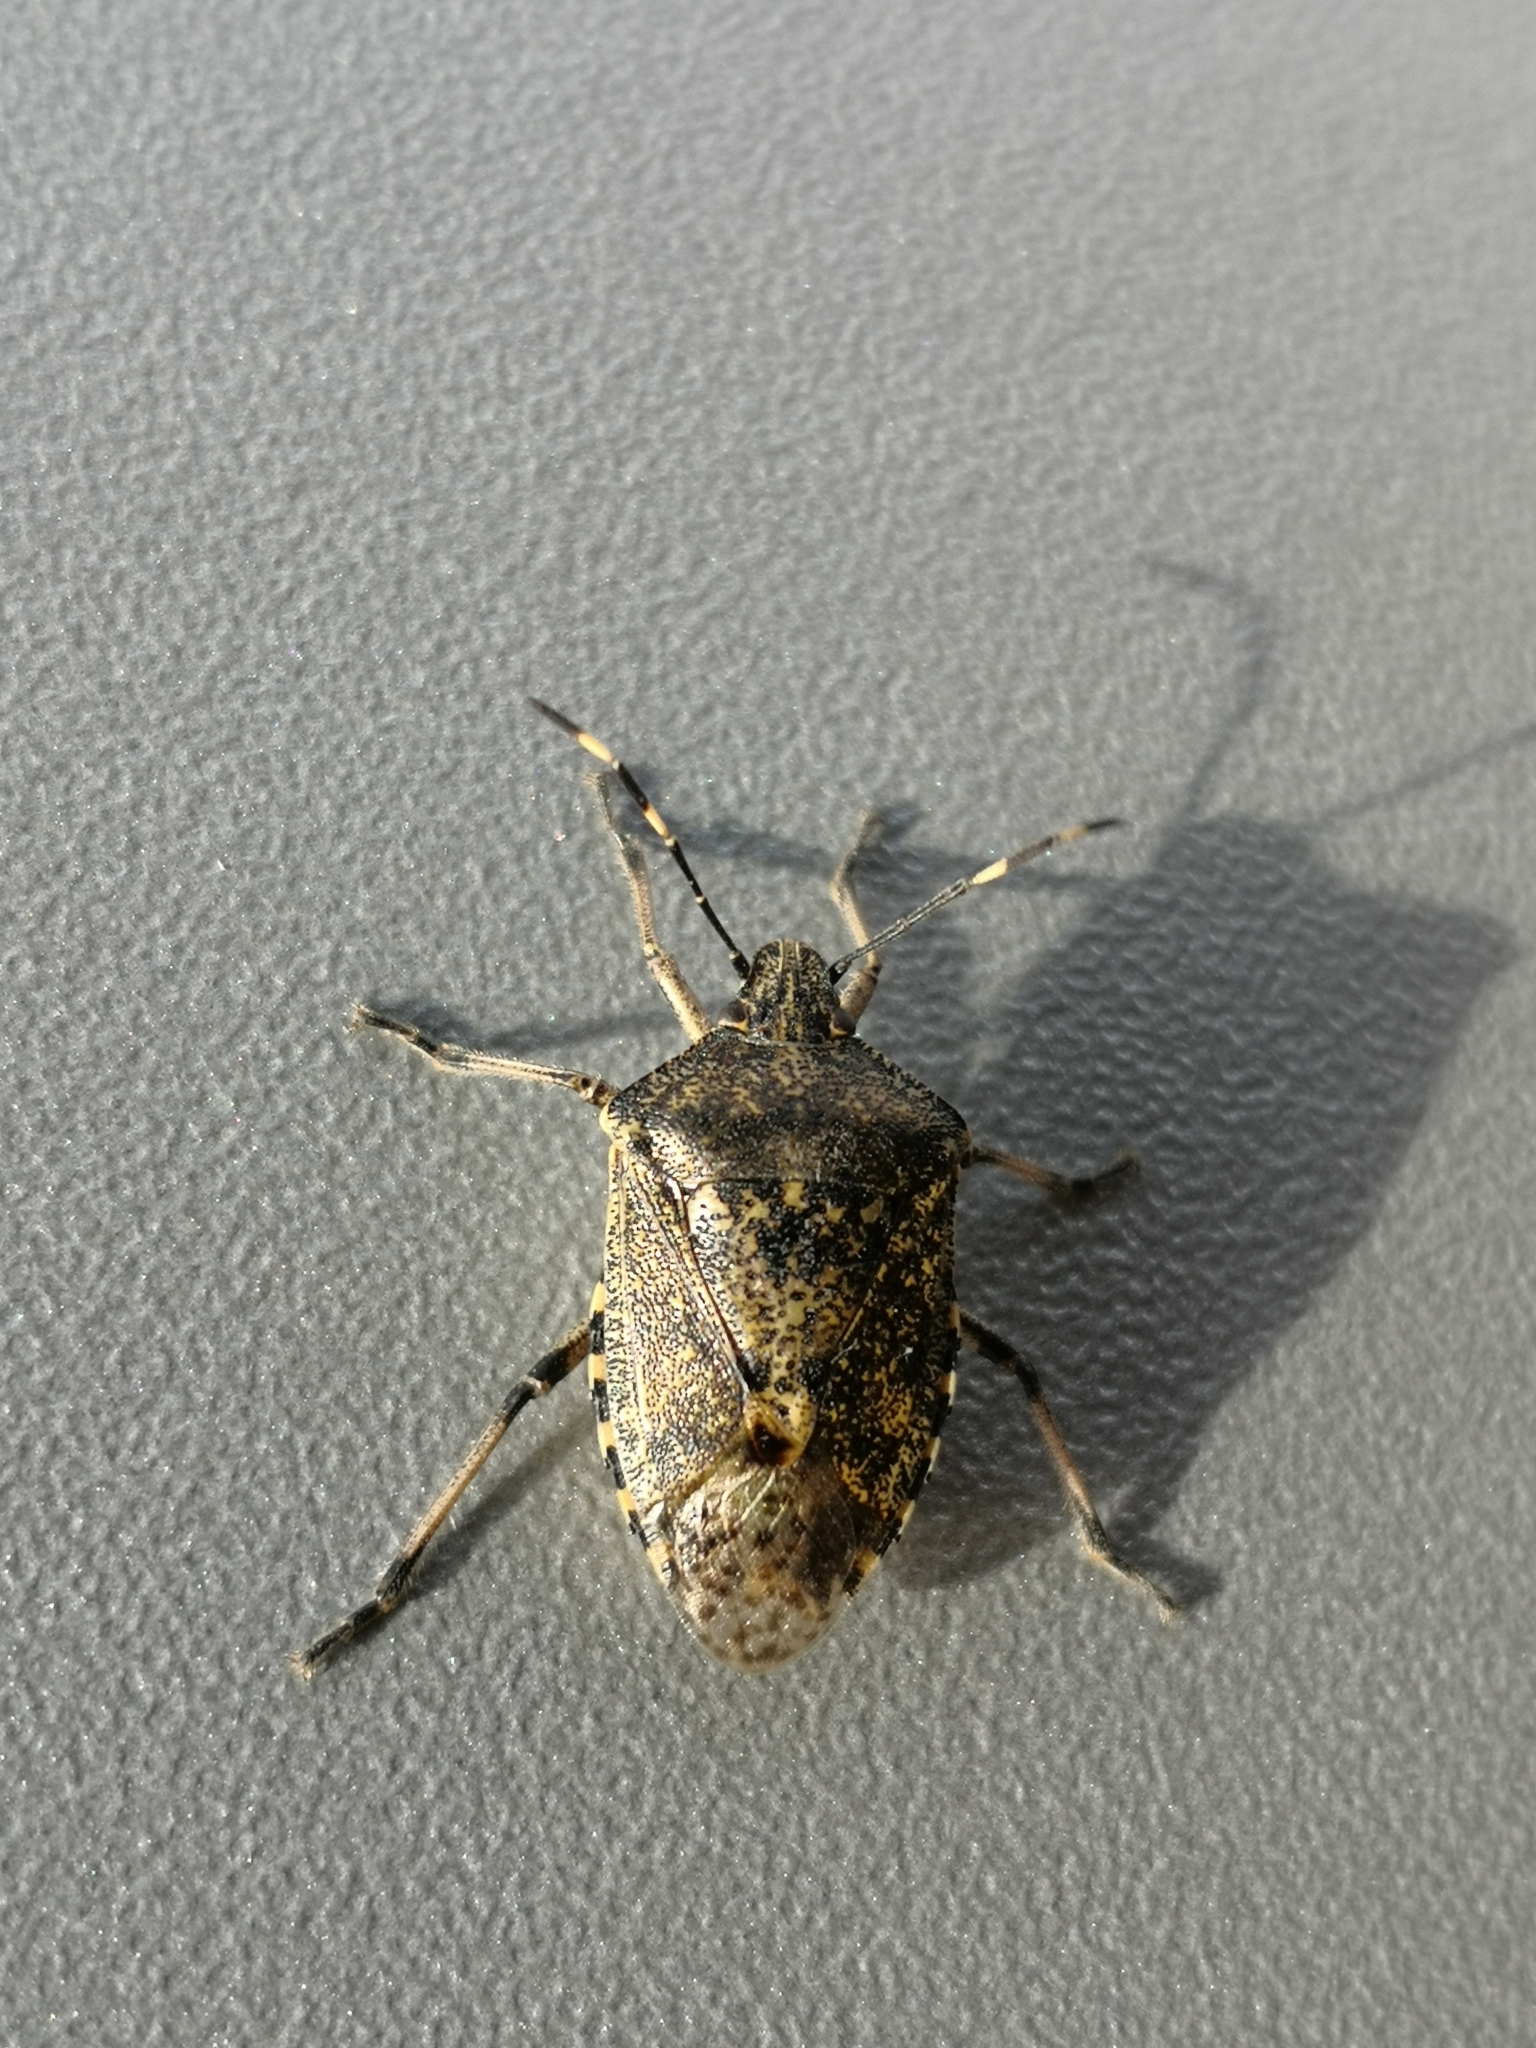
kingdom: Animalia
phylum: Arthropoda
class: Insecta
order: Hemiptera
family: Pentatomidae
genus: Rhaphigaster
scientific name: Rhaphigaster nebulosa
